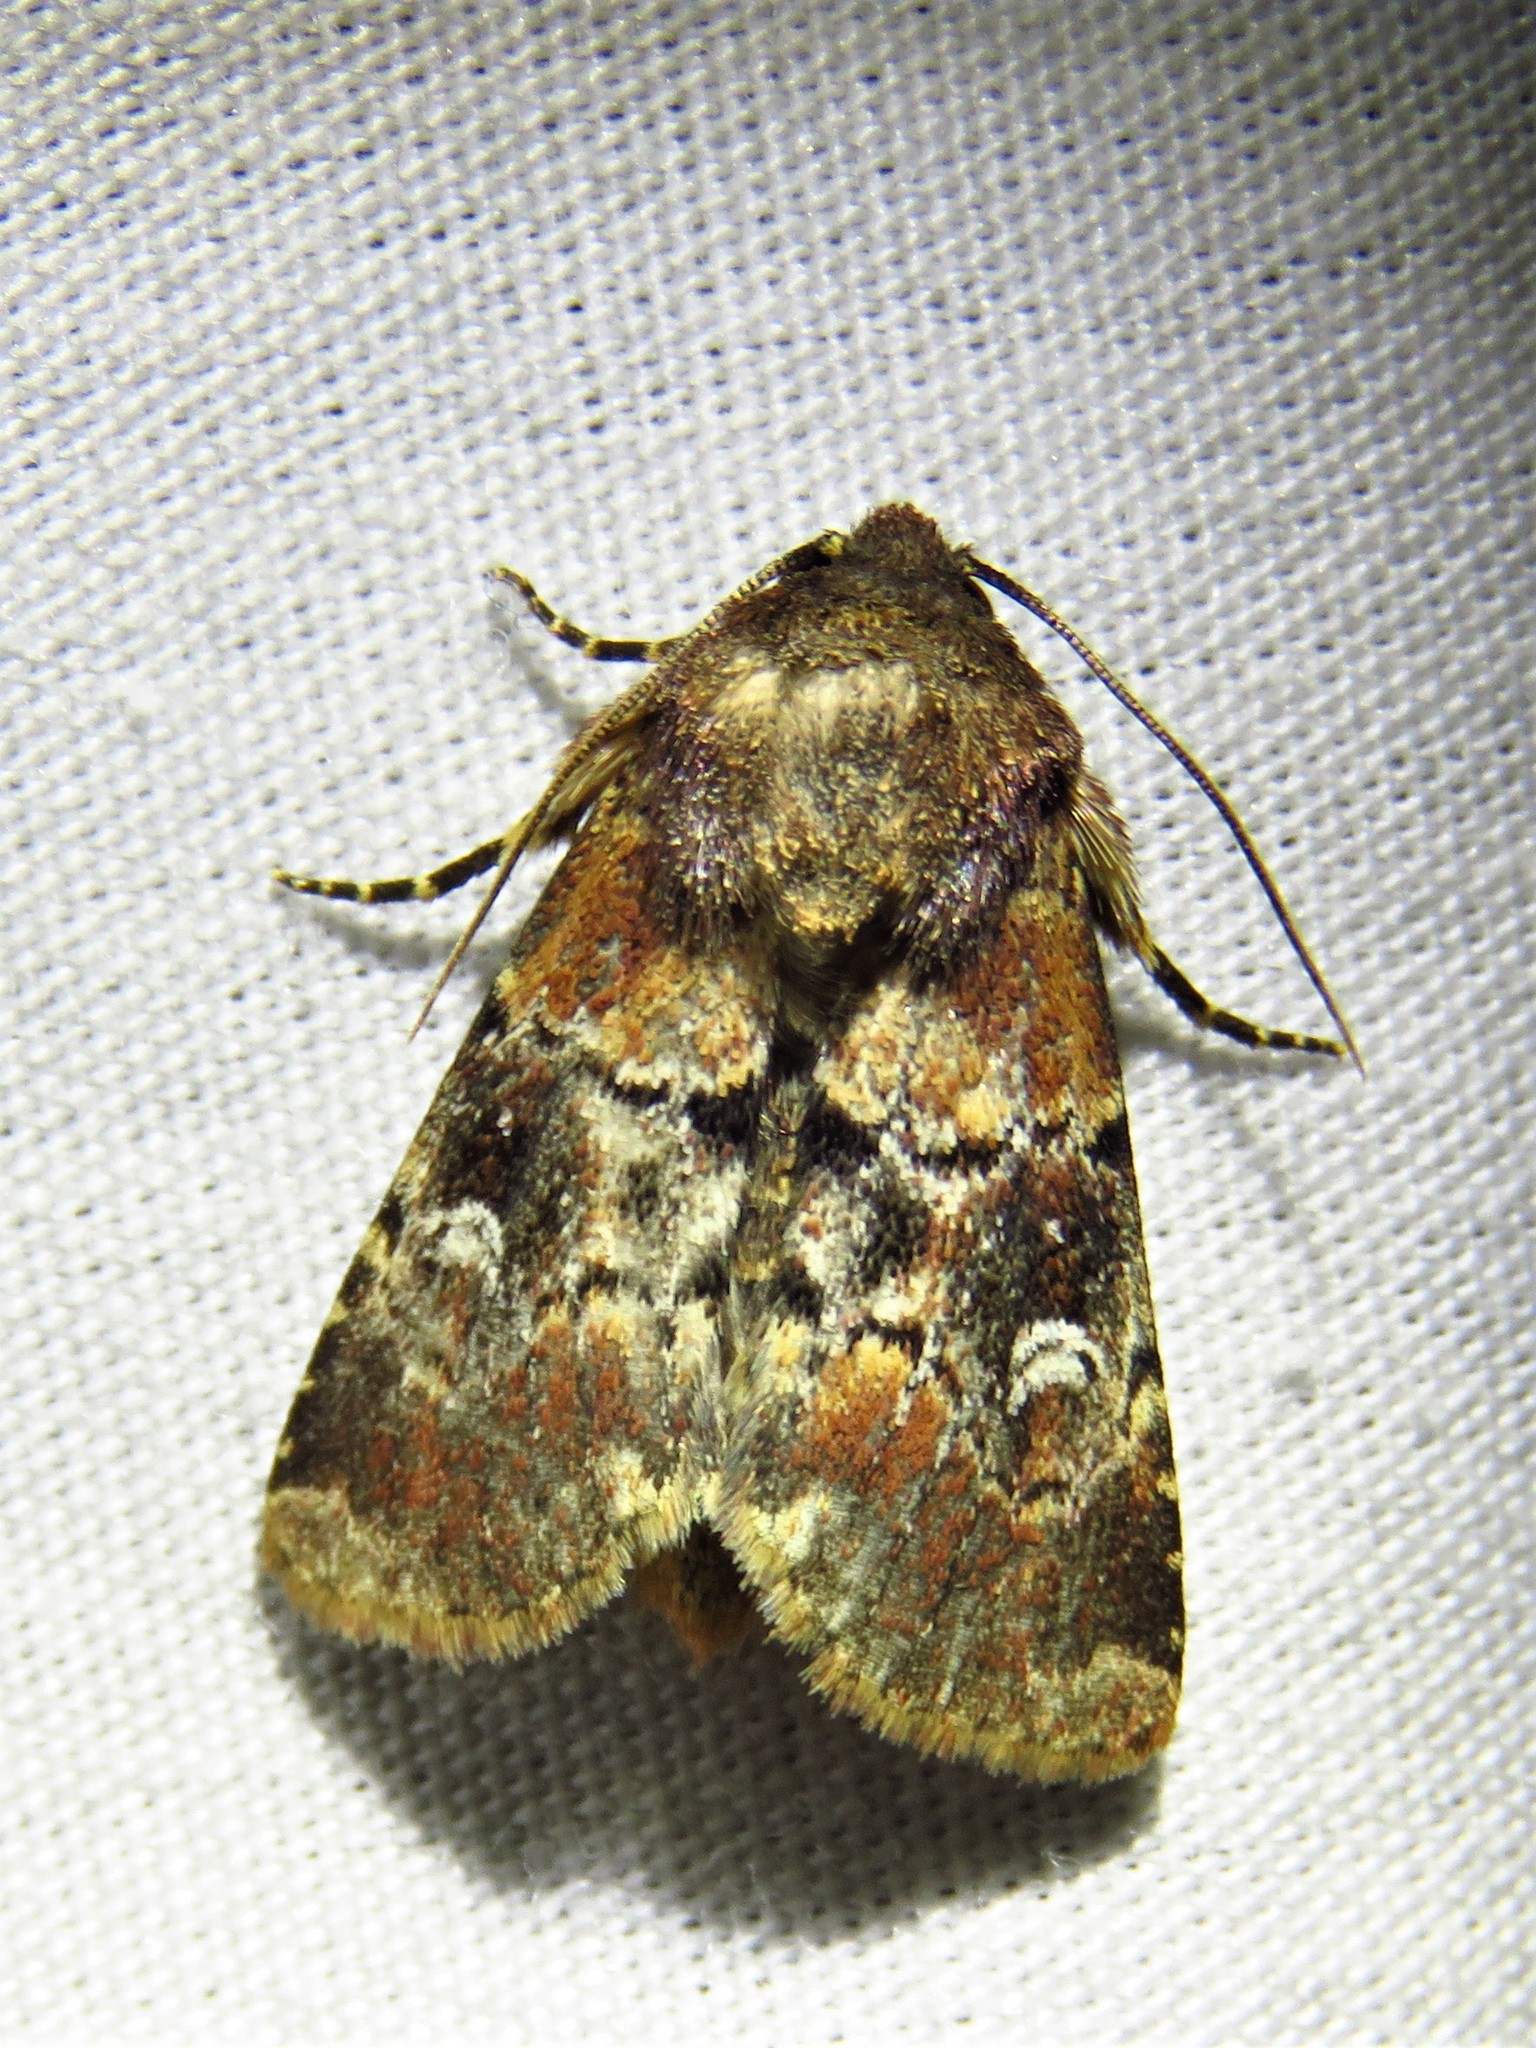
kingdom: Animalia
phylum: Arthropoda
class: Insecta
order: Lepidoptera
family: Noctuidae
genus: Properigea
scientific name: Properigea tapeta
